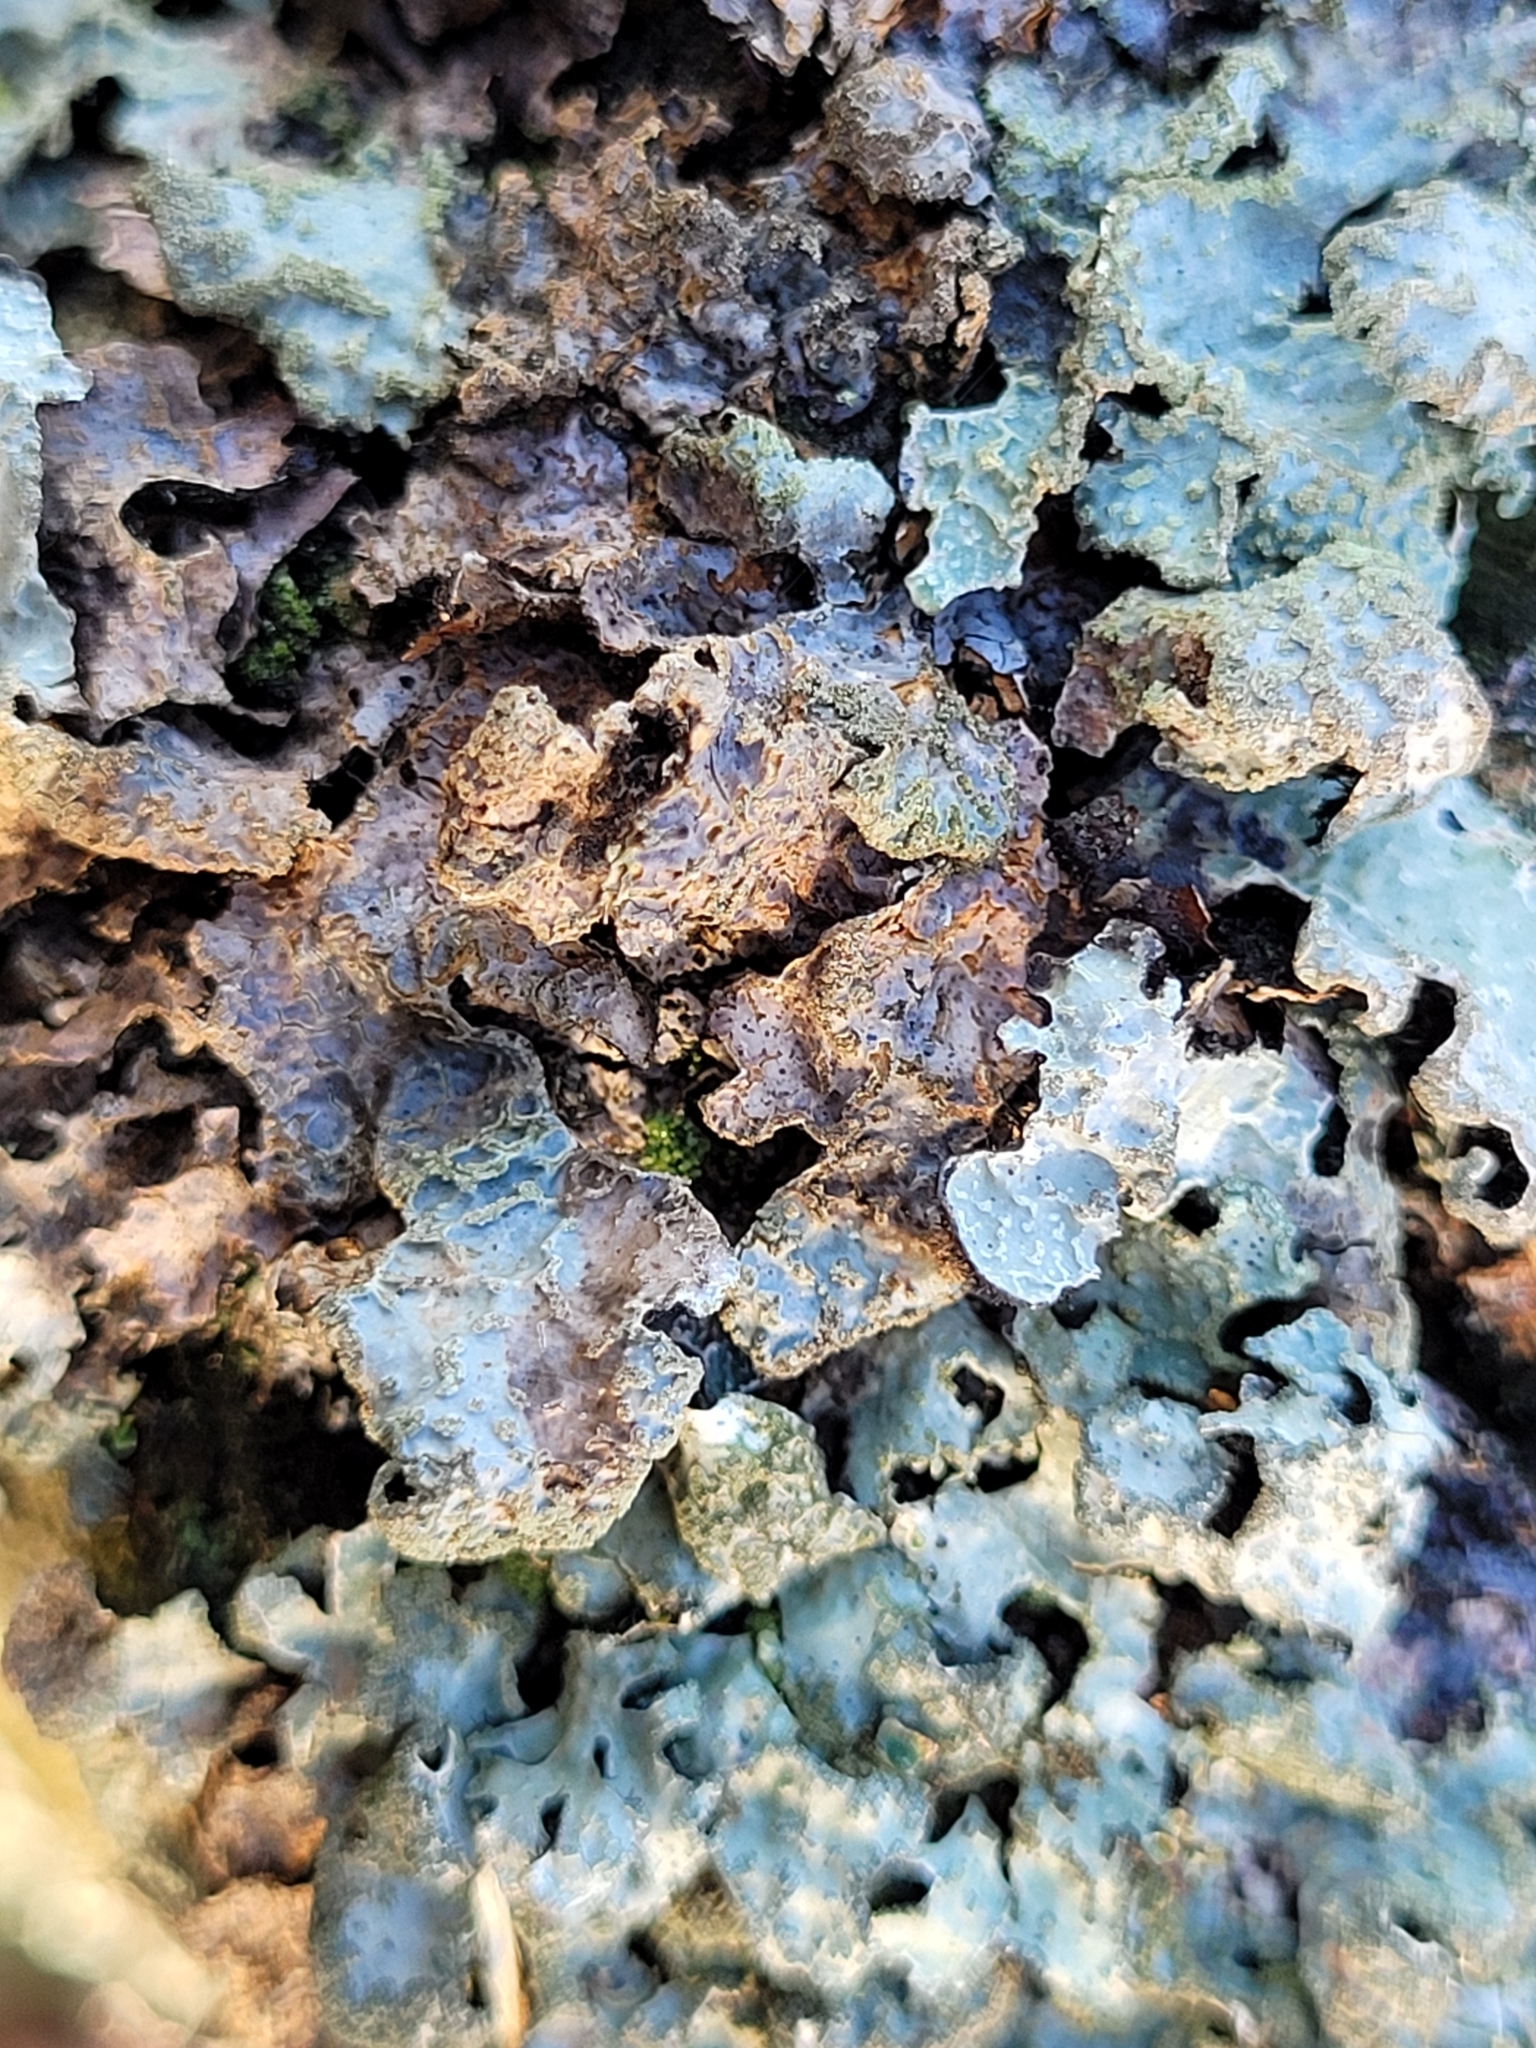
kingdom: Fungi
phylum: Ascomycota
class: Lecanoromycetes
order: Lecanorales
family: Parmeliaceae
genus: Parmelia
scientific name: Parmelia sulcata
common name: Netted shield lichen
